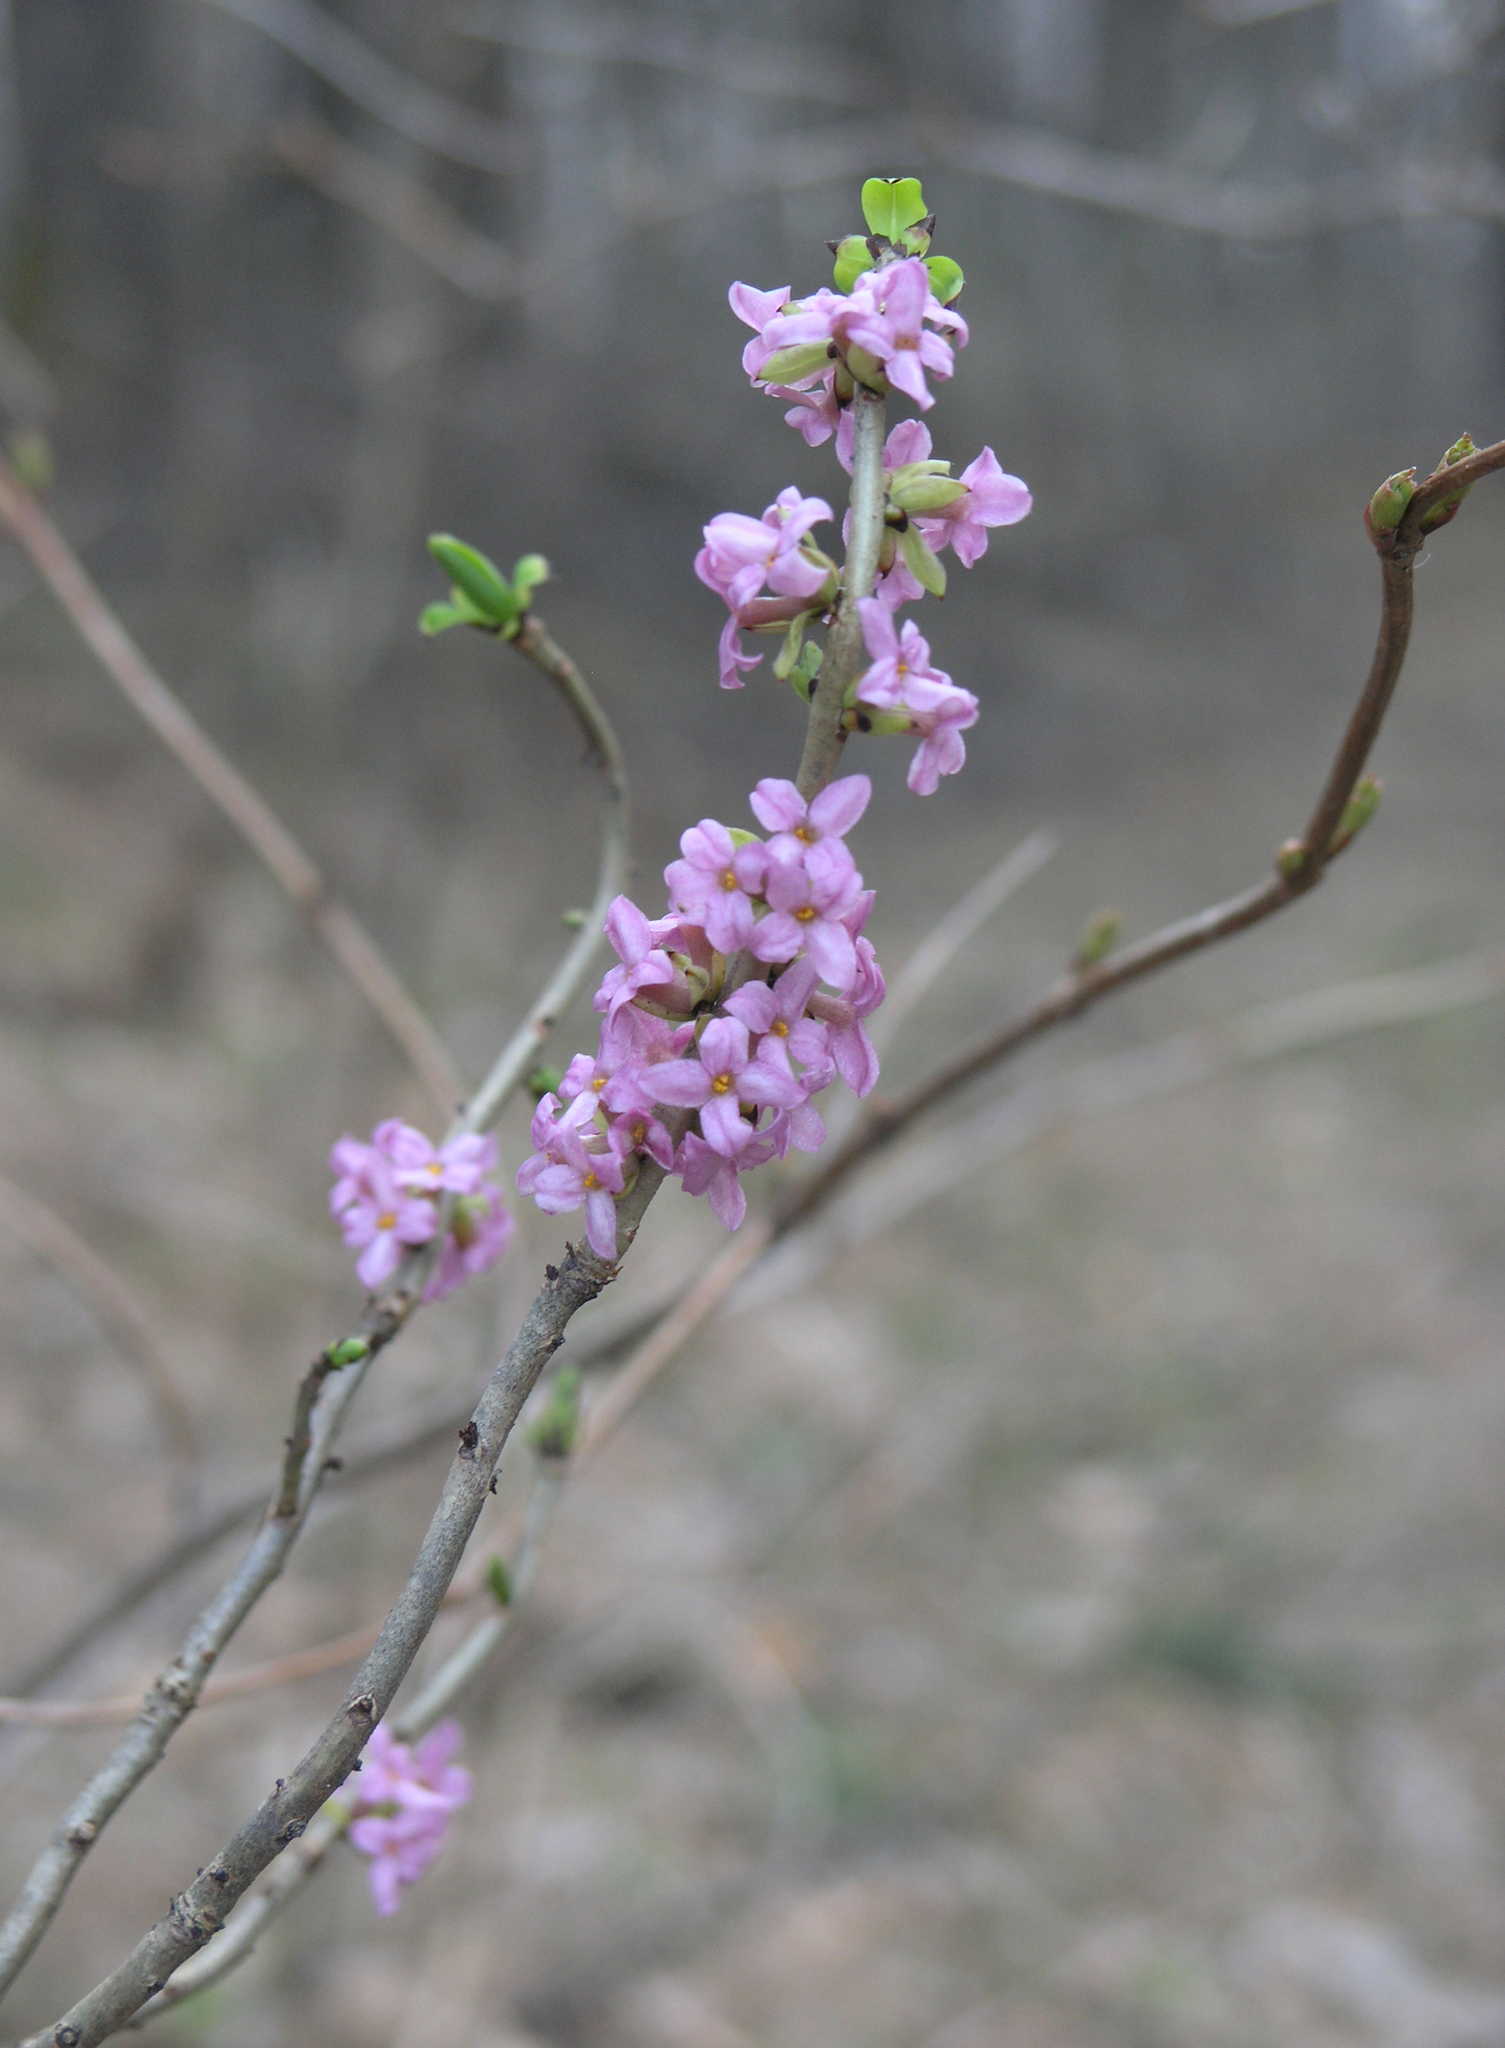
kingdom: Plantae
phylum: Tracheophyta
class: Magnoliopsida
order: Malvales
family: Thymelaeaceae
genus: Daphne
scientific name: Daphne mezereum
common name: Mezereon
